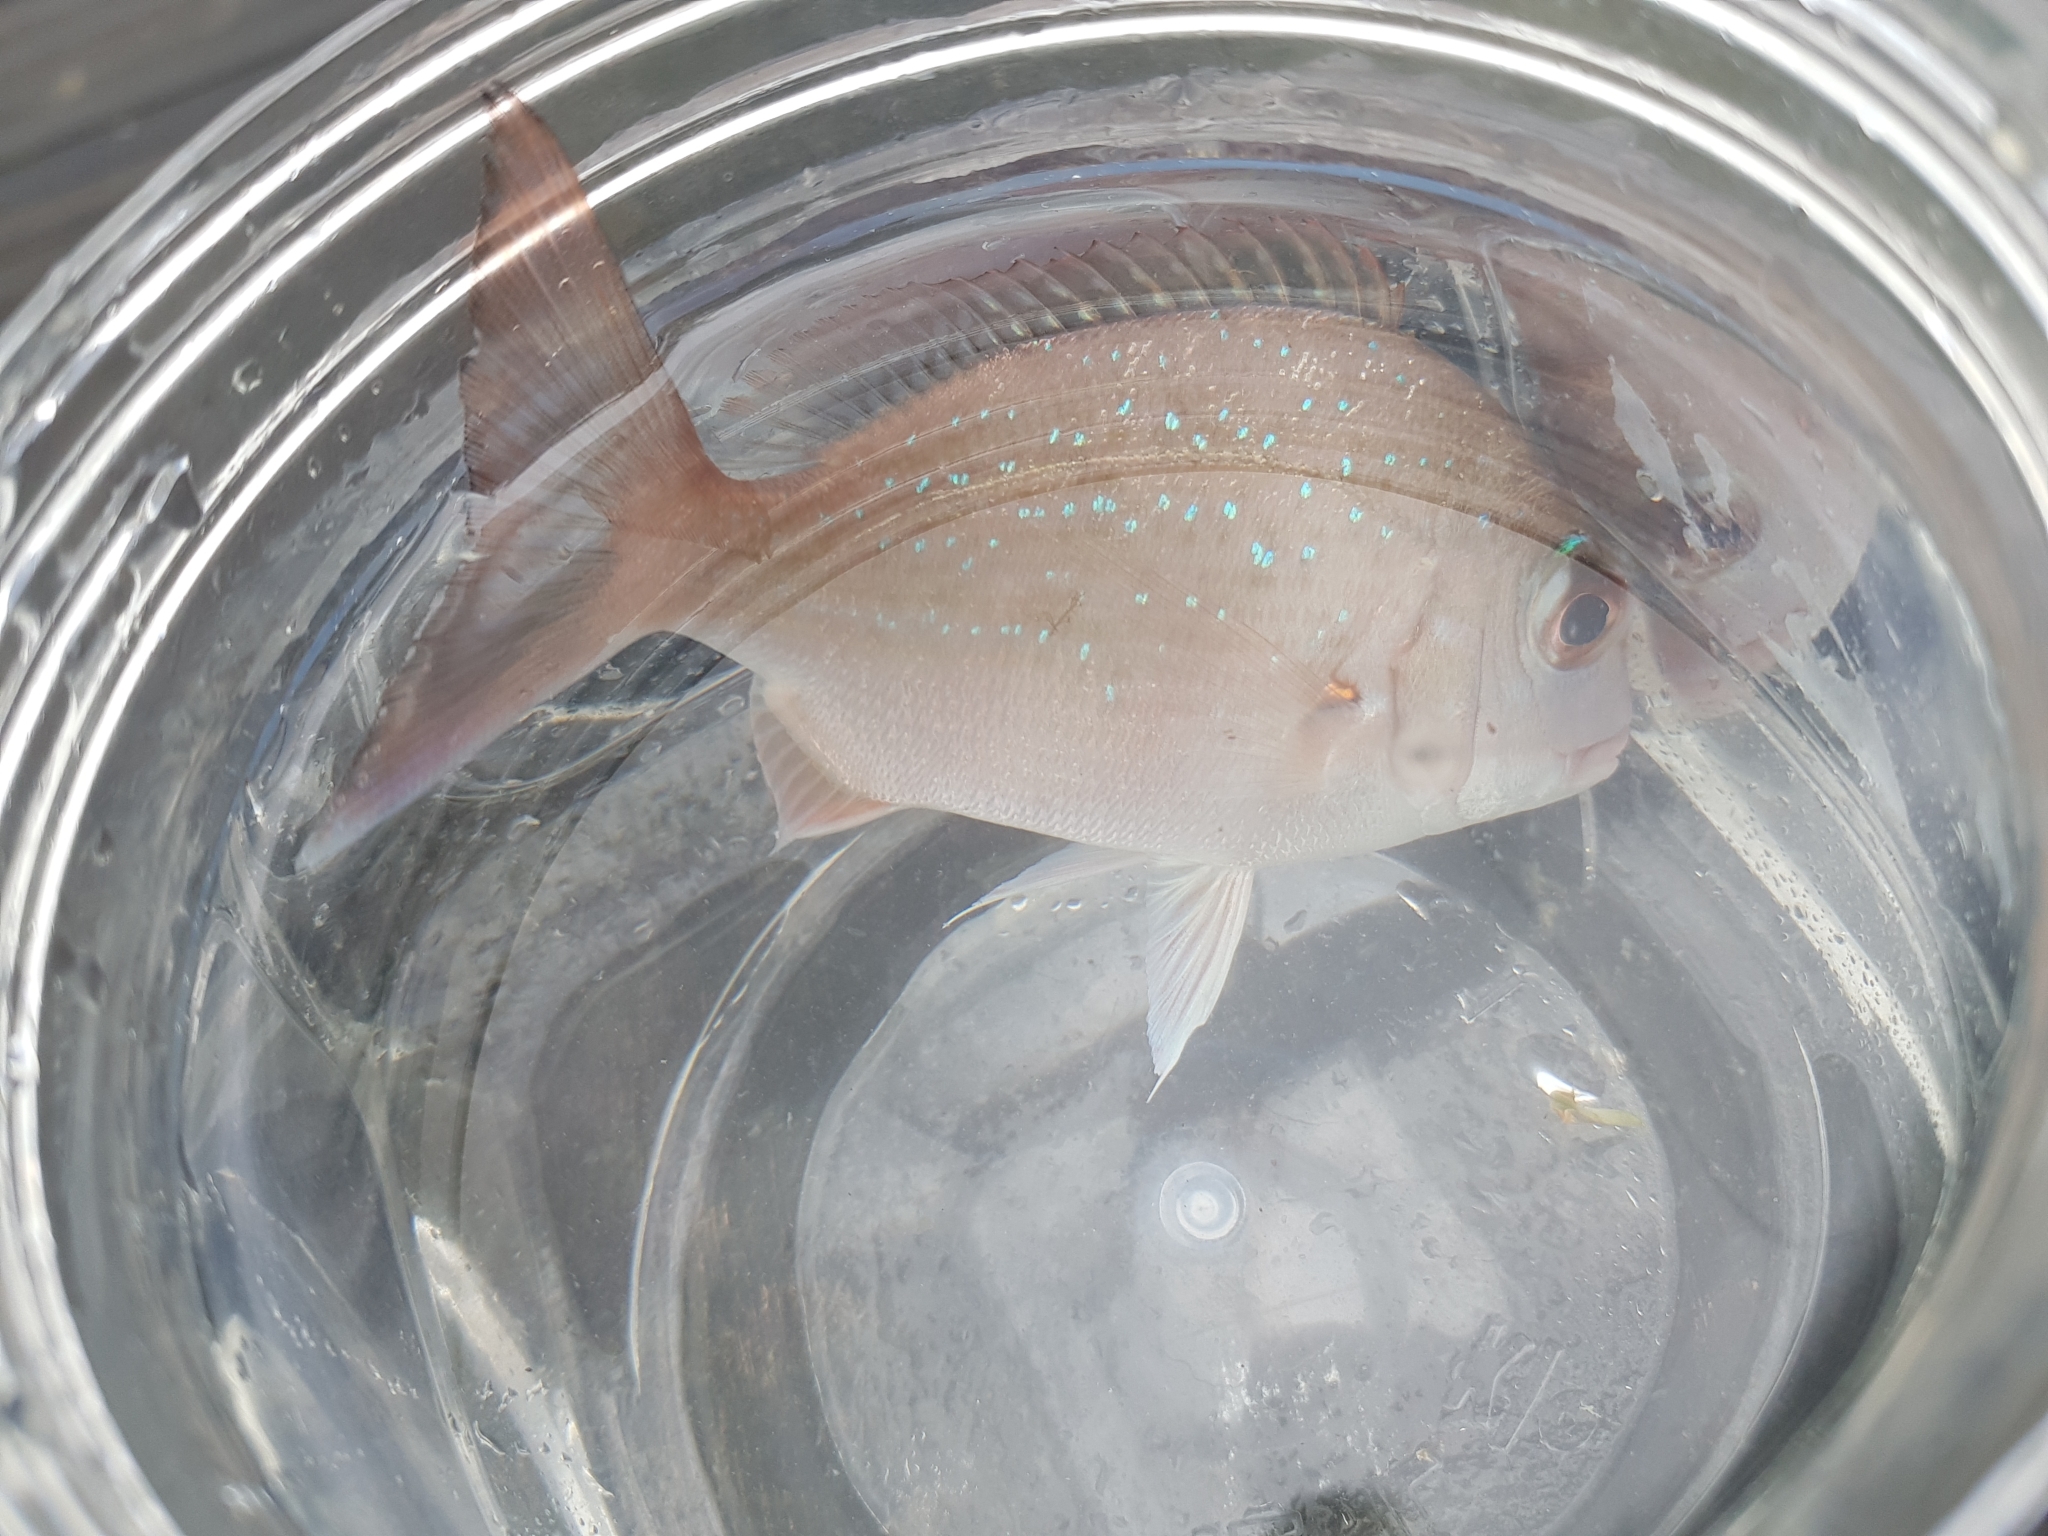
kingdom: Animalia
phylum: Chordata
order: Perciformes
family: Sparidae
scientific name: Sparidae
